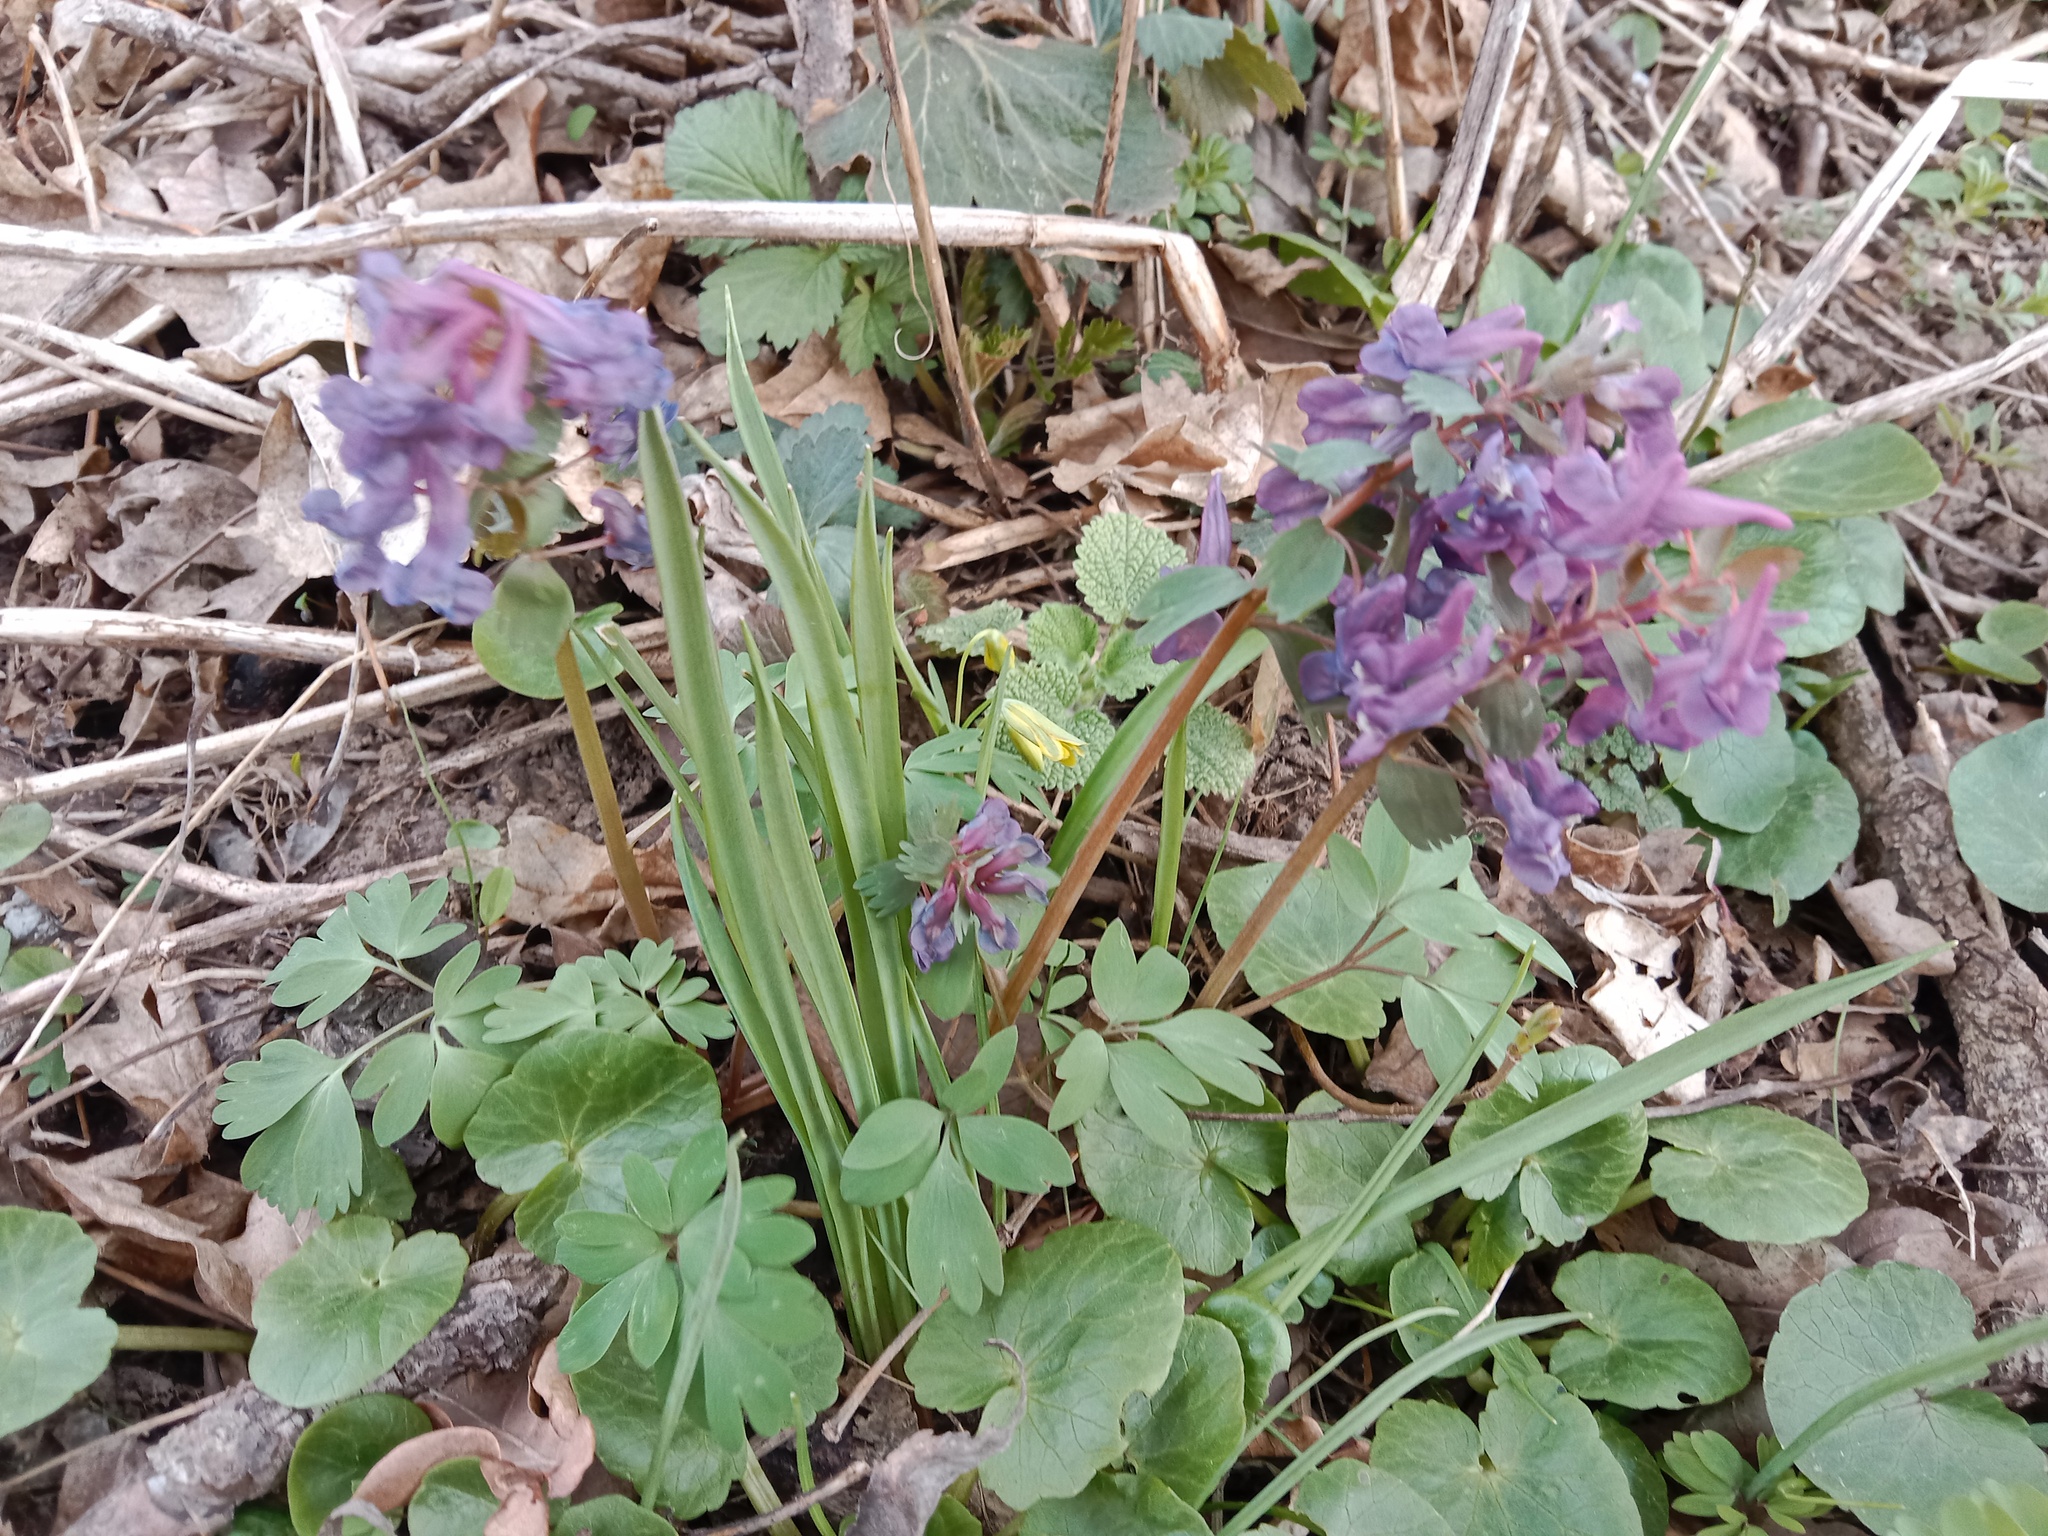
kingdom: Plantae
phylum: Tracheophyta
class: Magnoliopsida
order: Ranunculales
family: Papaveraceae
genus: Corydalis
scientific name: Corydalis solida
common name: Bird-in-a-bush
